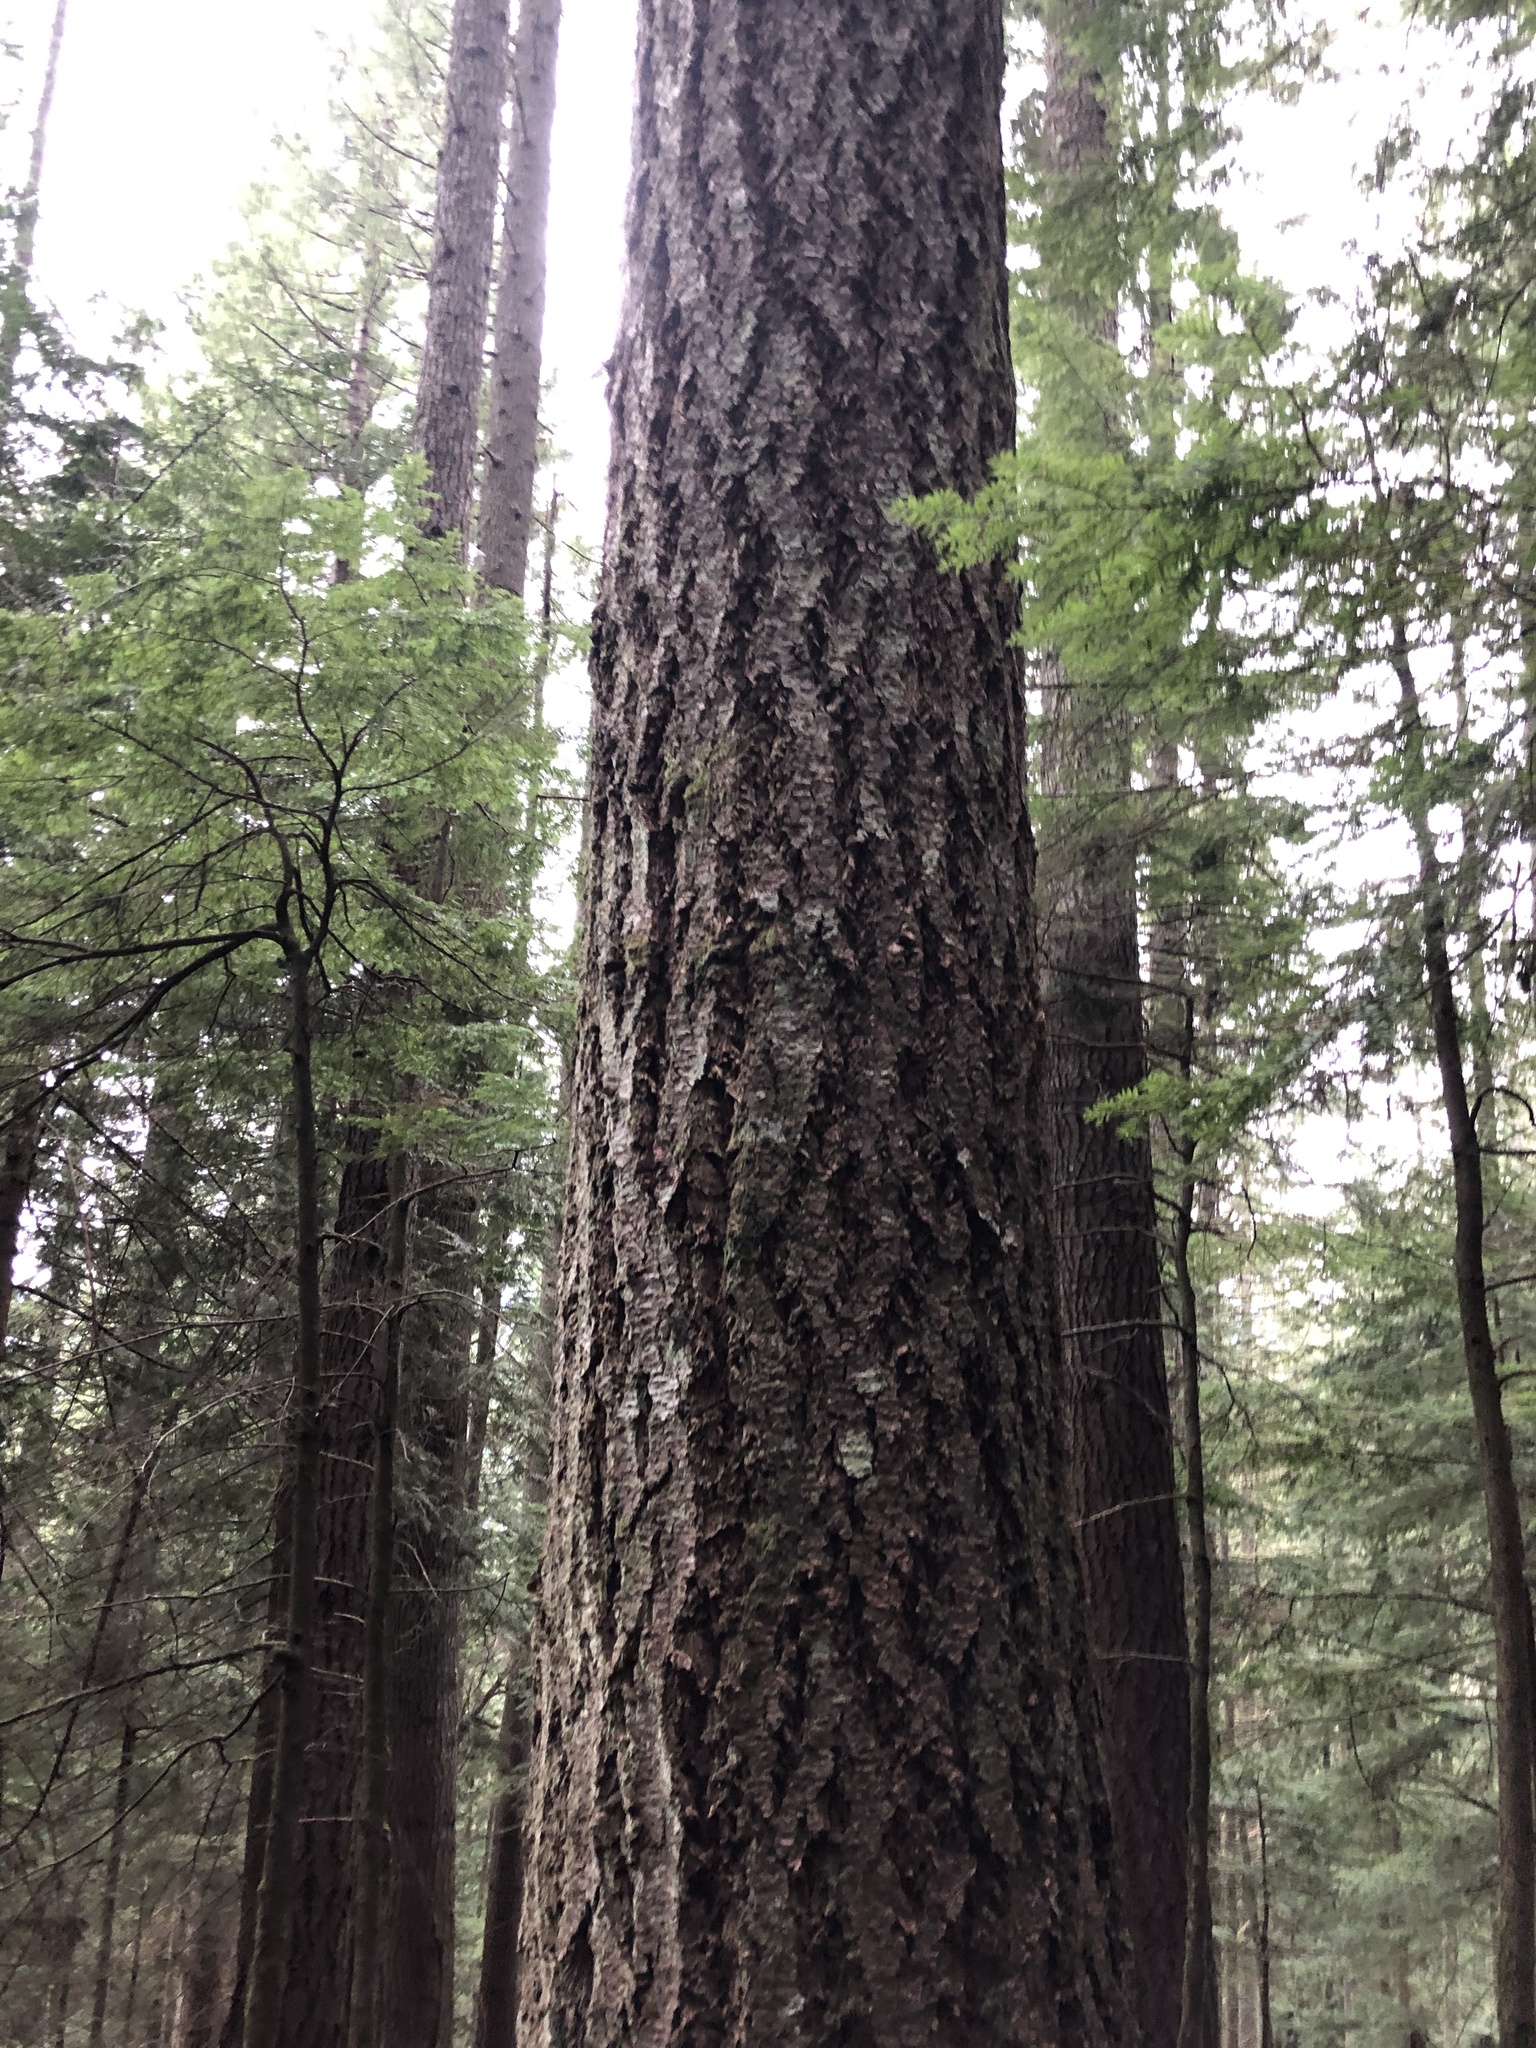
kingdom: Plantae
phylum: Tracheophyta
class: Pinopsida
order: Pinales
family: Pinaceae
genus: Pseudotsuga
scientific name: Pseudotsuga menziesii
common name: Douglas fir
